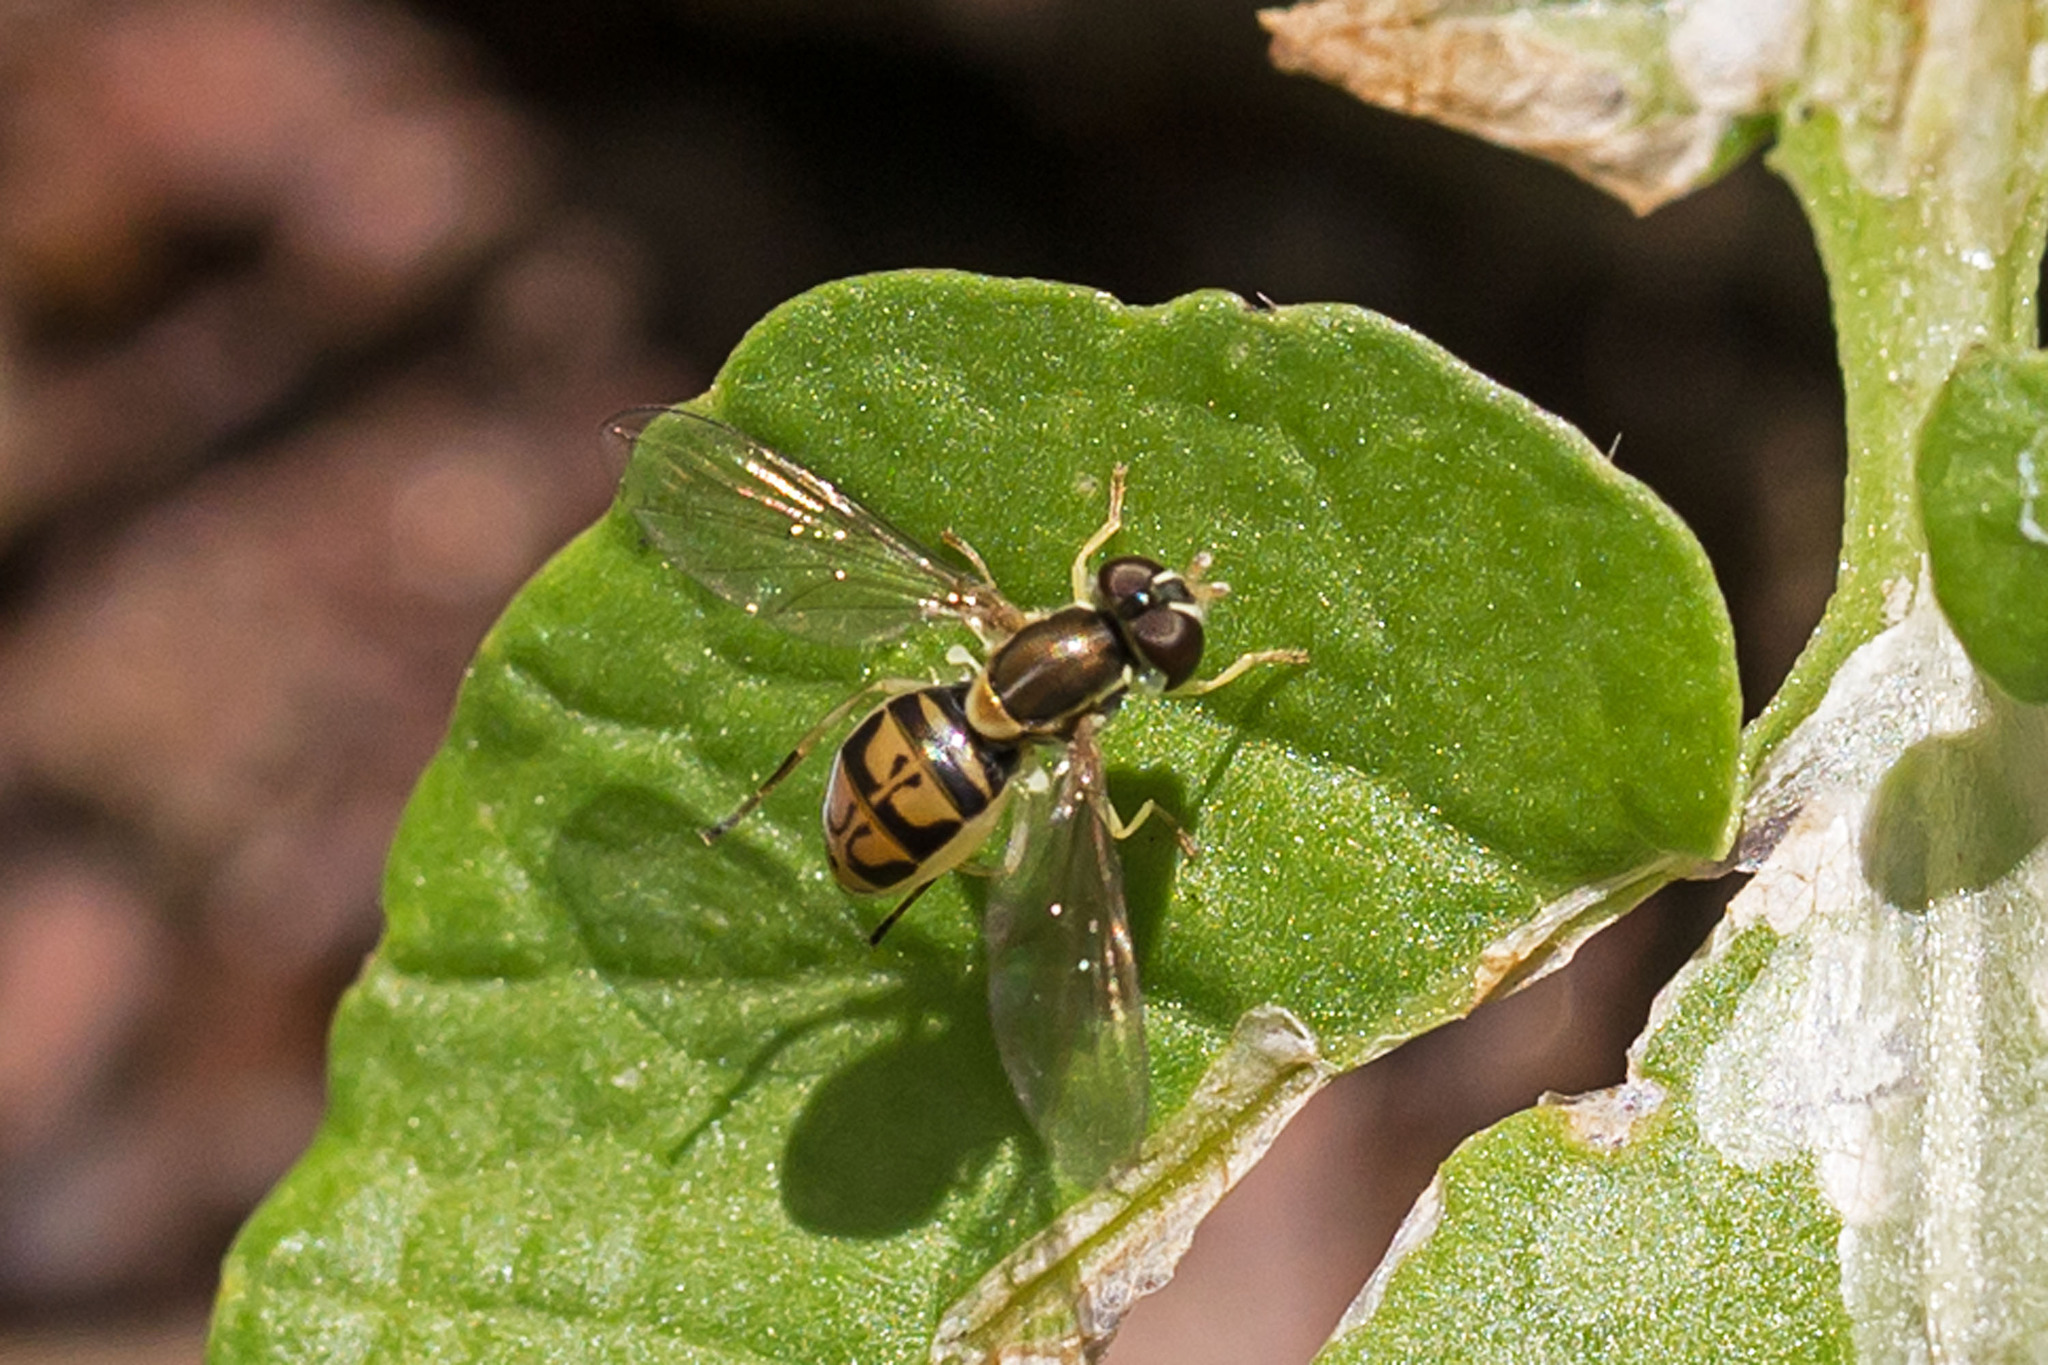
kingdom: Animalia
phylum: Arthropoda
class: Insecta
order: Diptera
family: Syrphidae
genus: Toxomerus
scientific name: Toxomerus marginatus
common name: Syrphid fly
